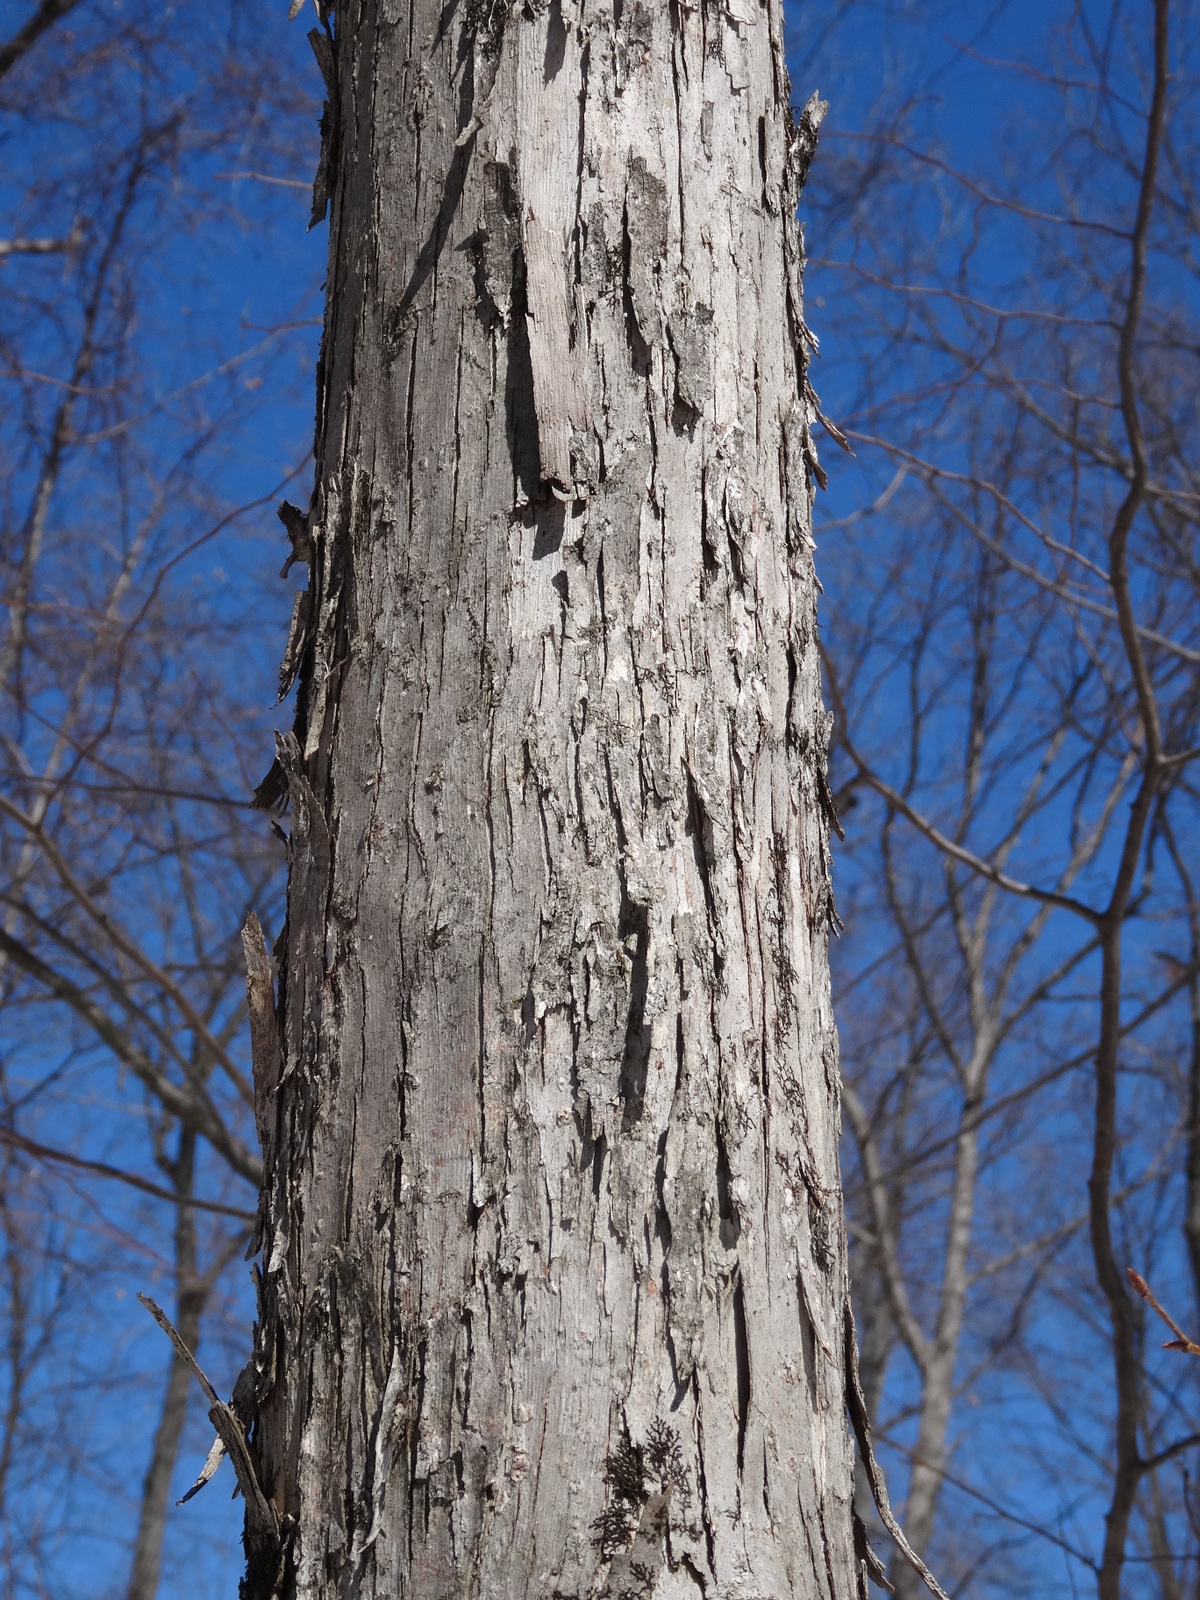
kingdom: Plantae
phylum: Tracheophyta
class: Magnoliopsida
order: Fagales
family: Juglandaceae
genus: Carya
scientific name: Carya ovata
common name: Shagbark hickory
